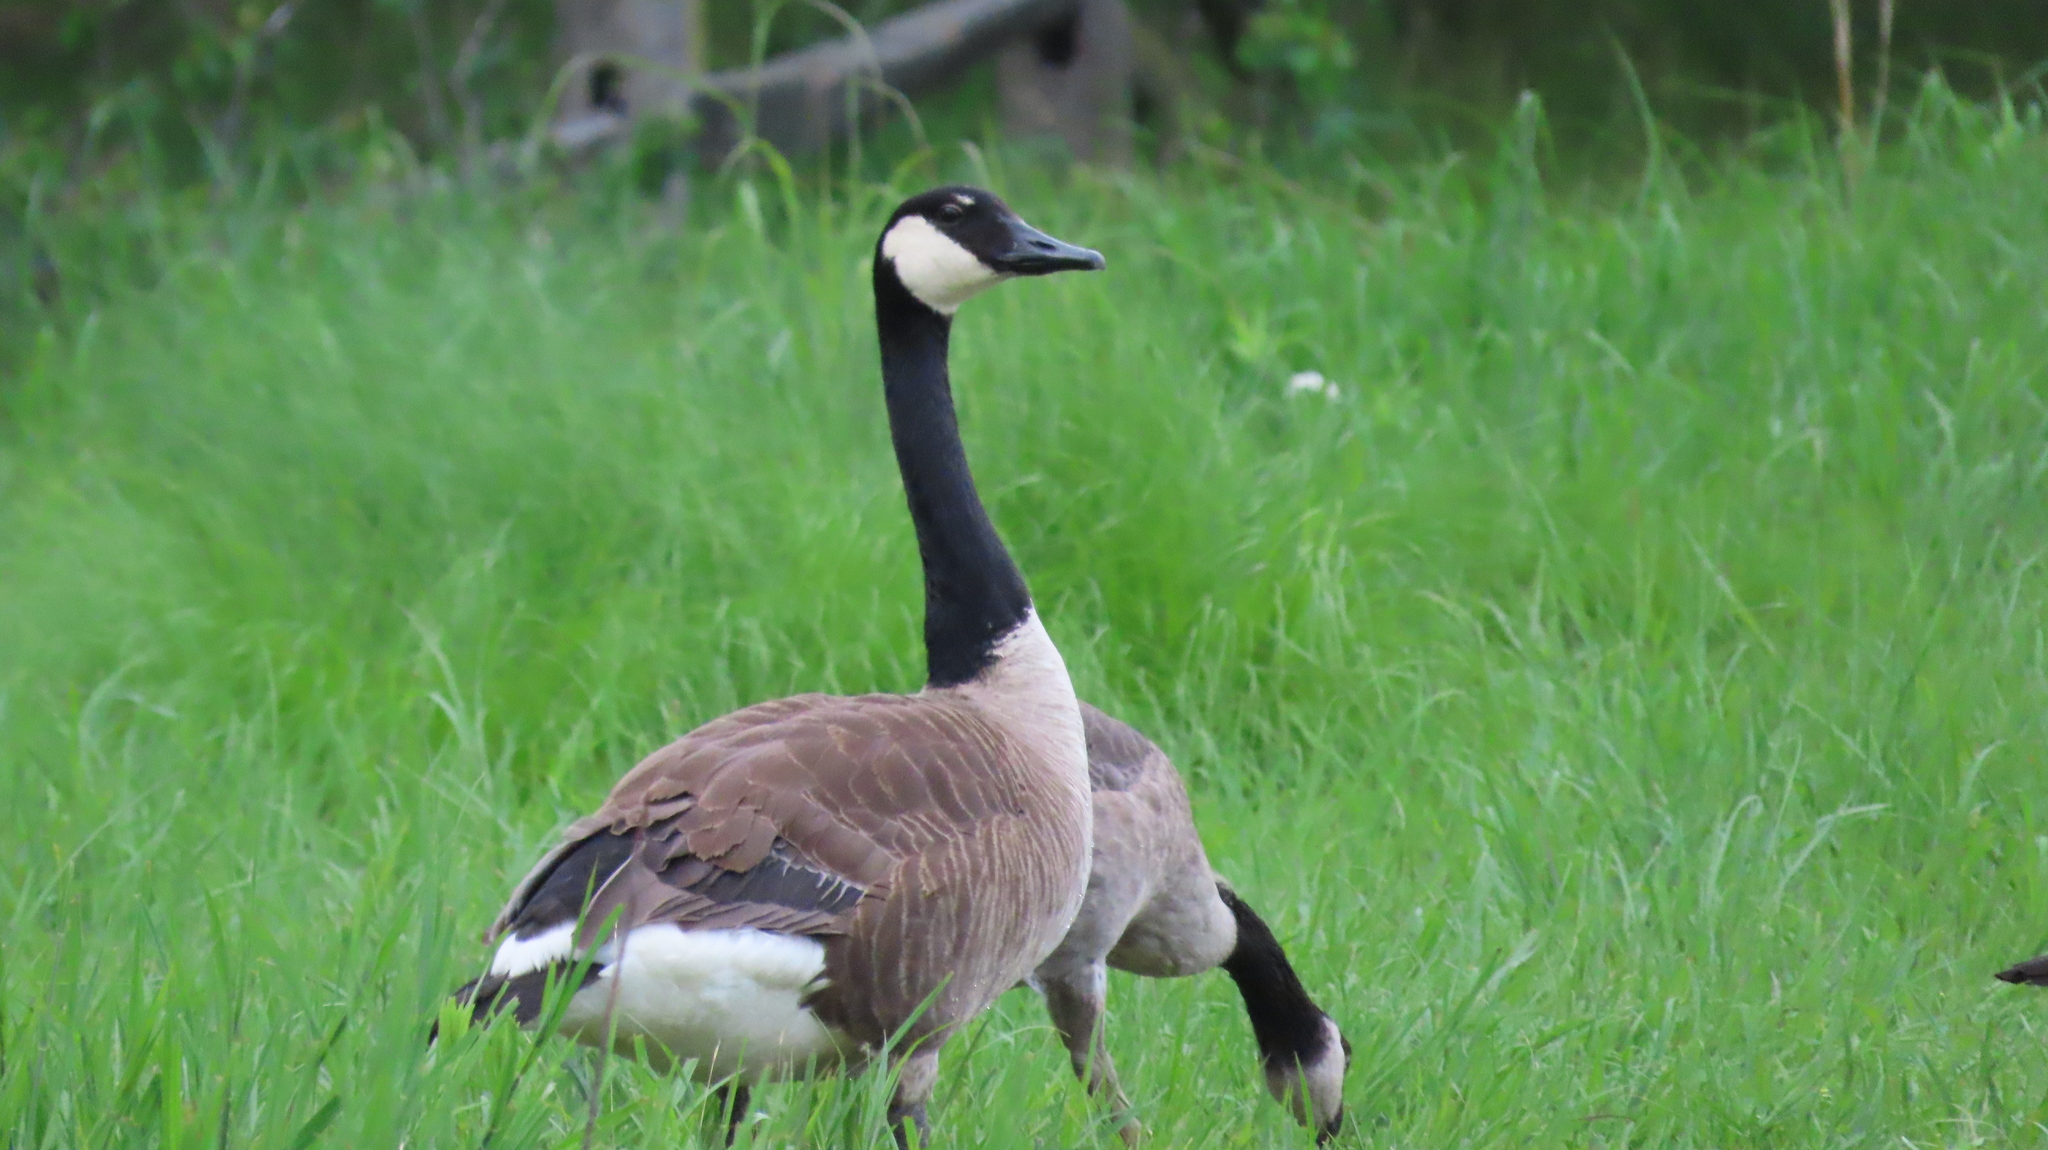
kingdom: Animalia
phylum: Chordata
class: Aves
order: Anseriformes
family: Anatidae
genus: Branta
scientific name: Branta canadensis
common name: Canada goose
